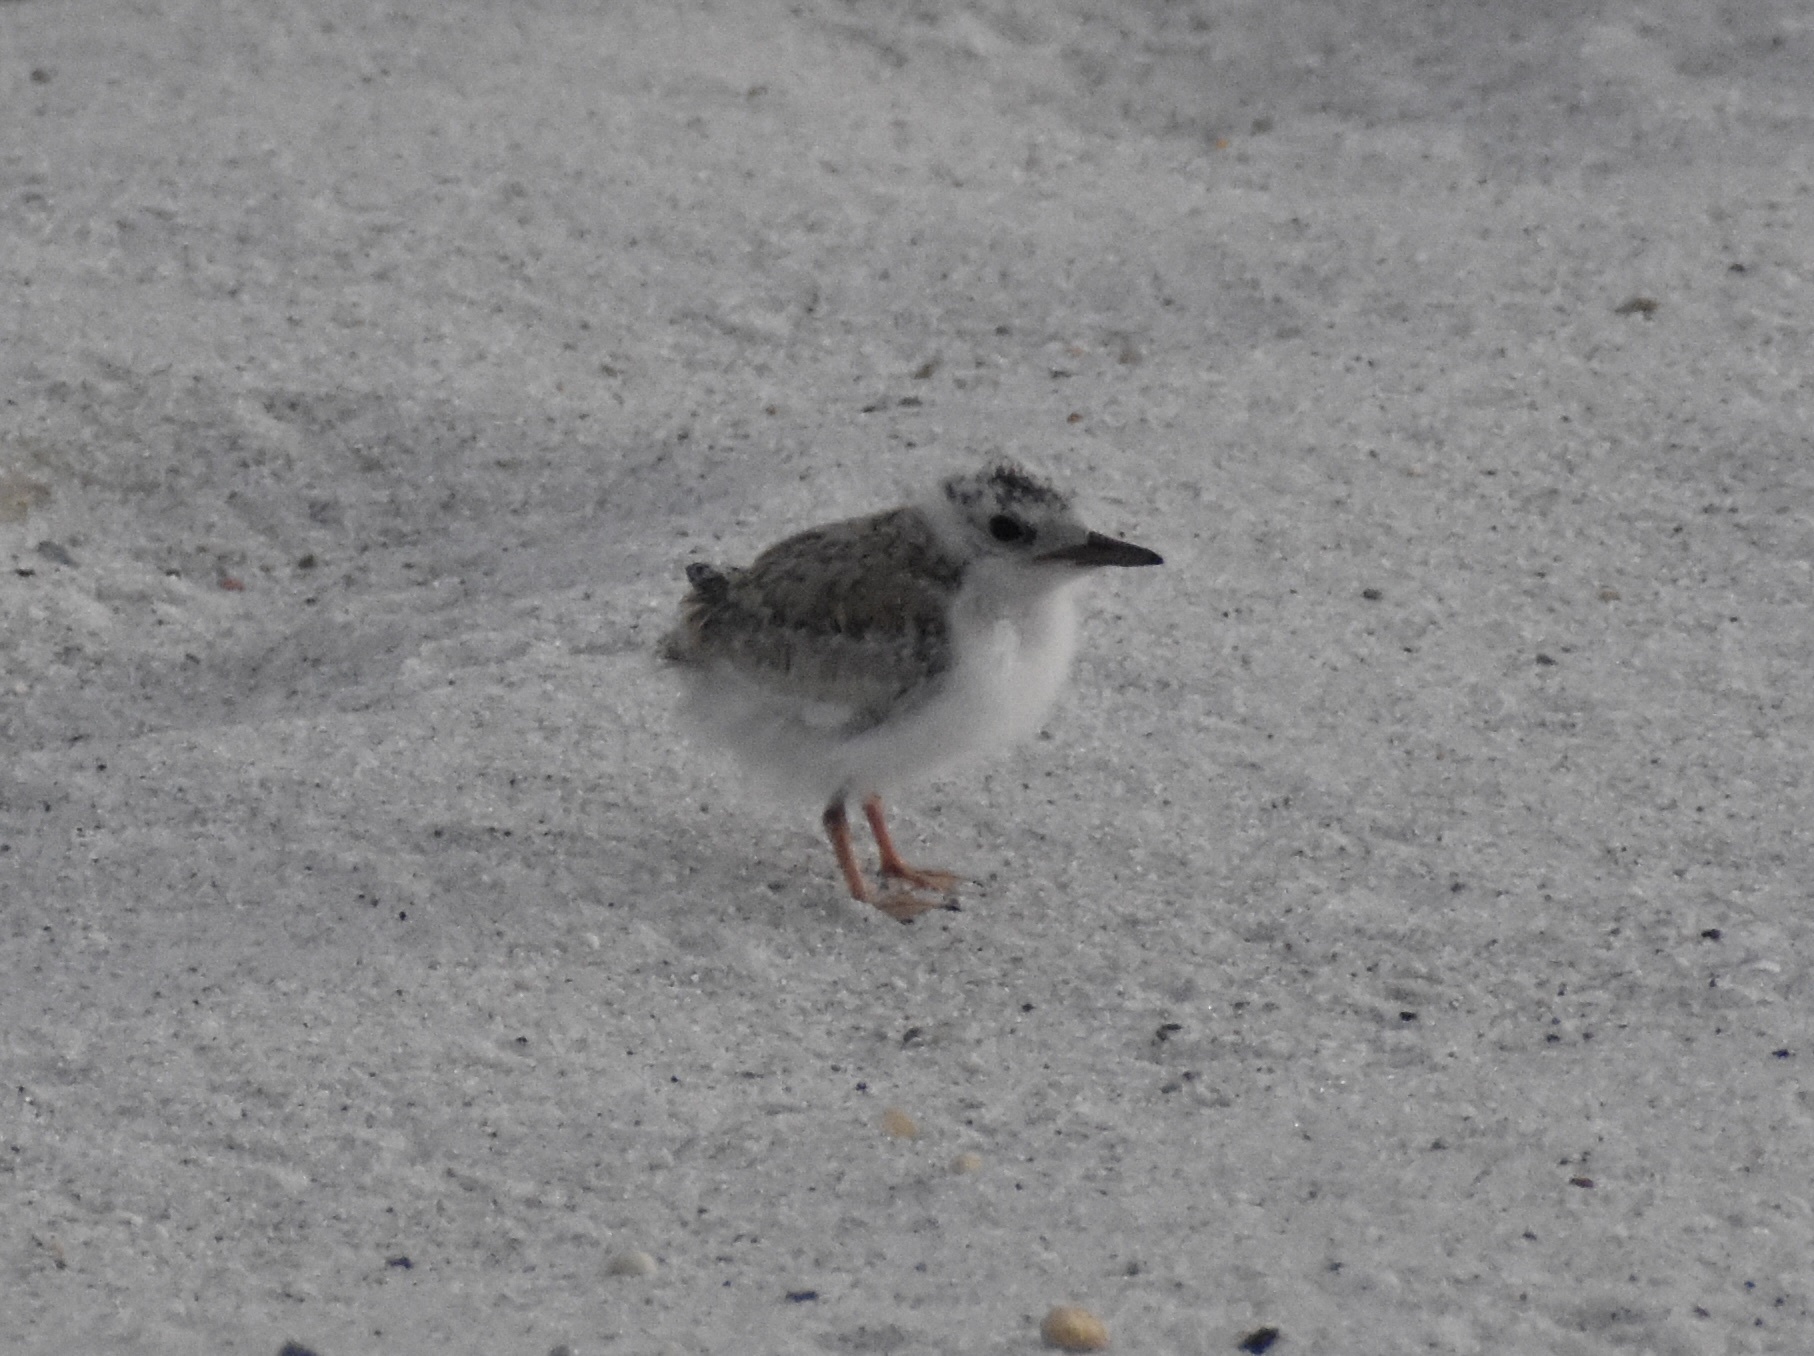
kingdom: Animalia
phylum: Chordata
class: Aves
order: Charadriiformes
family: Laridae
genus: Sternula
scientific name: Sternula antillarum
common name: Least tern
